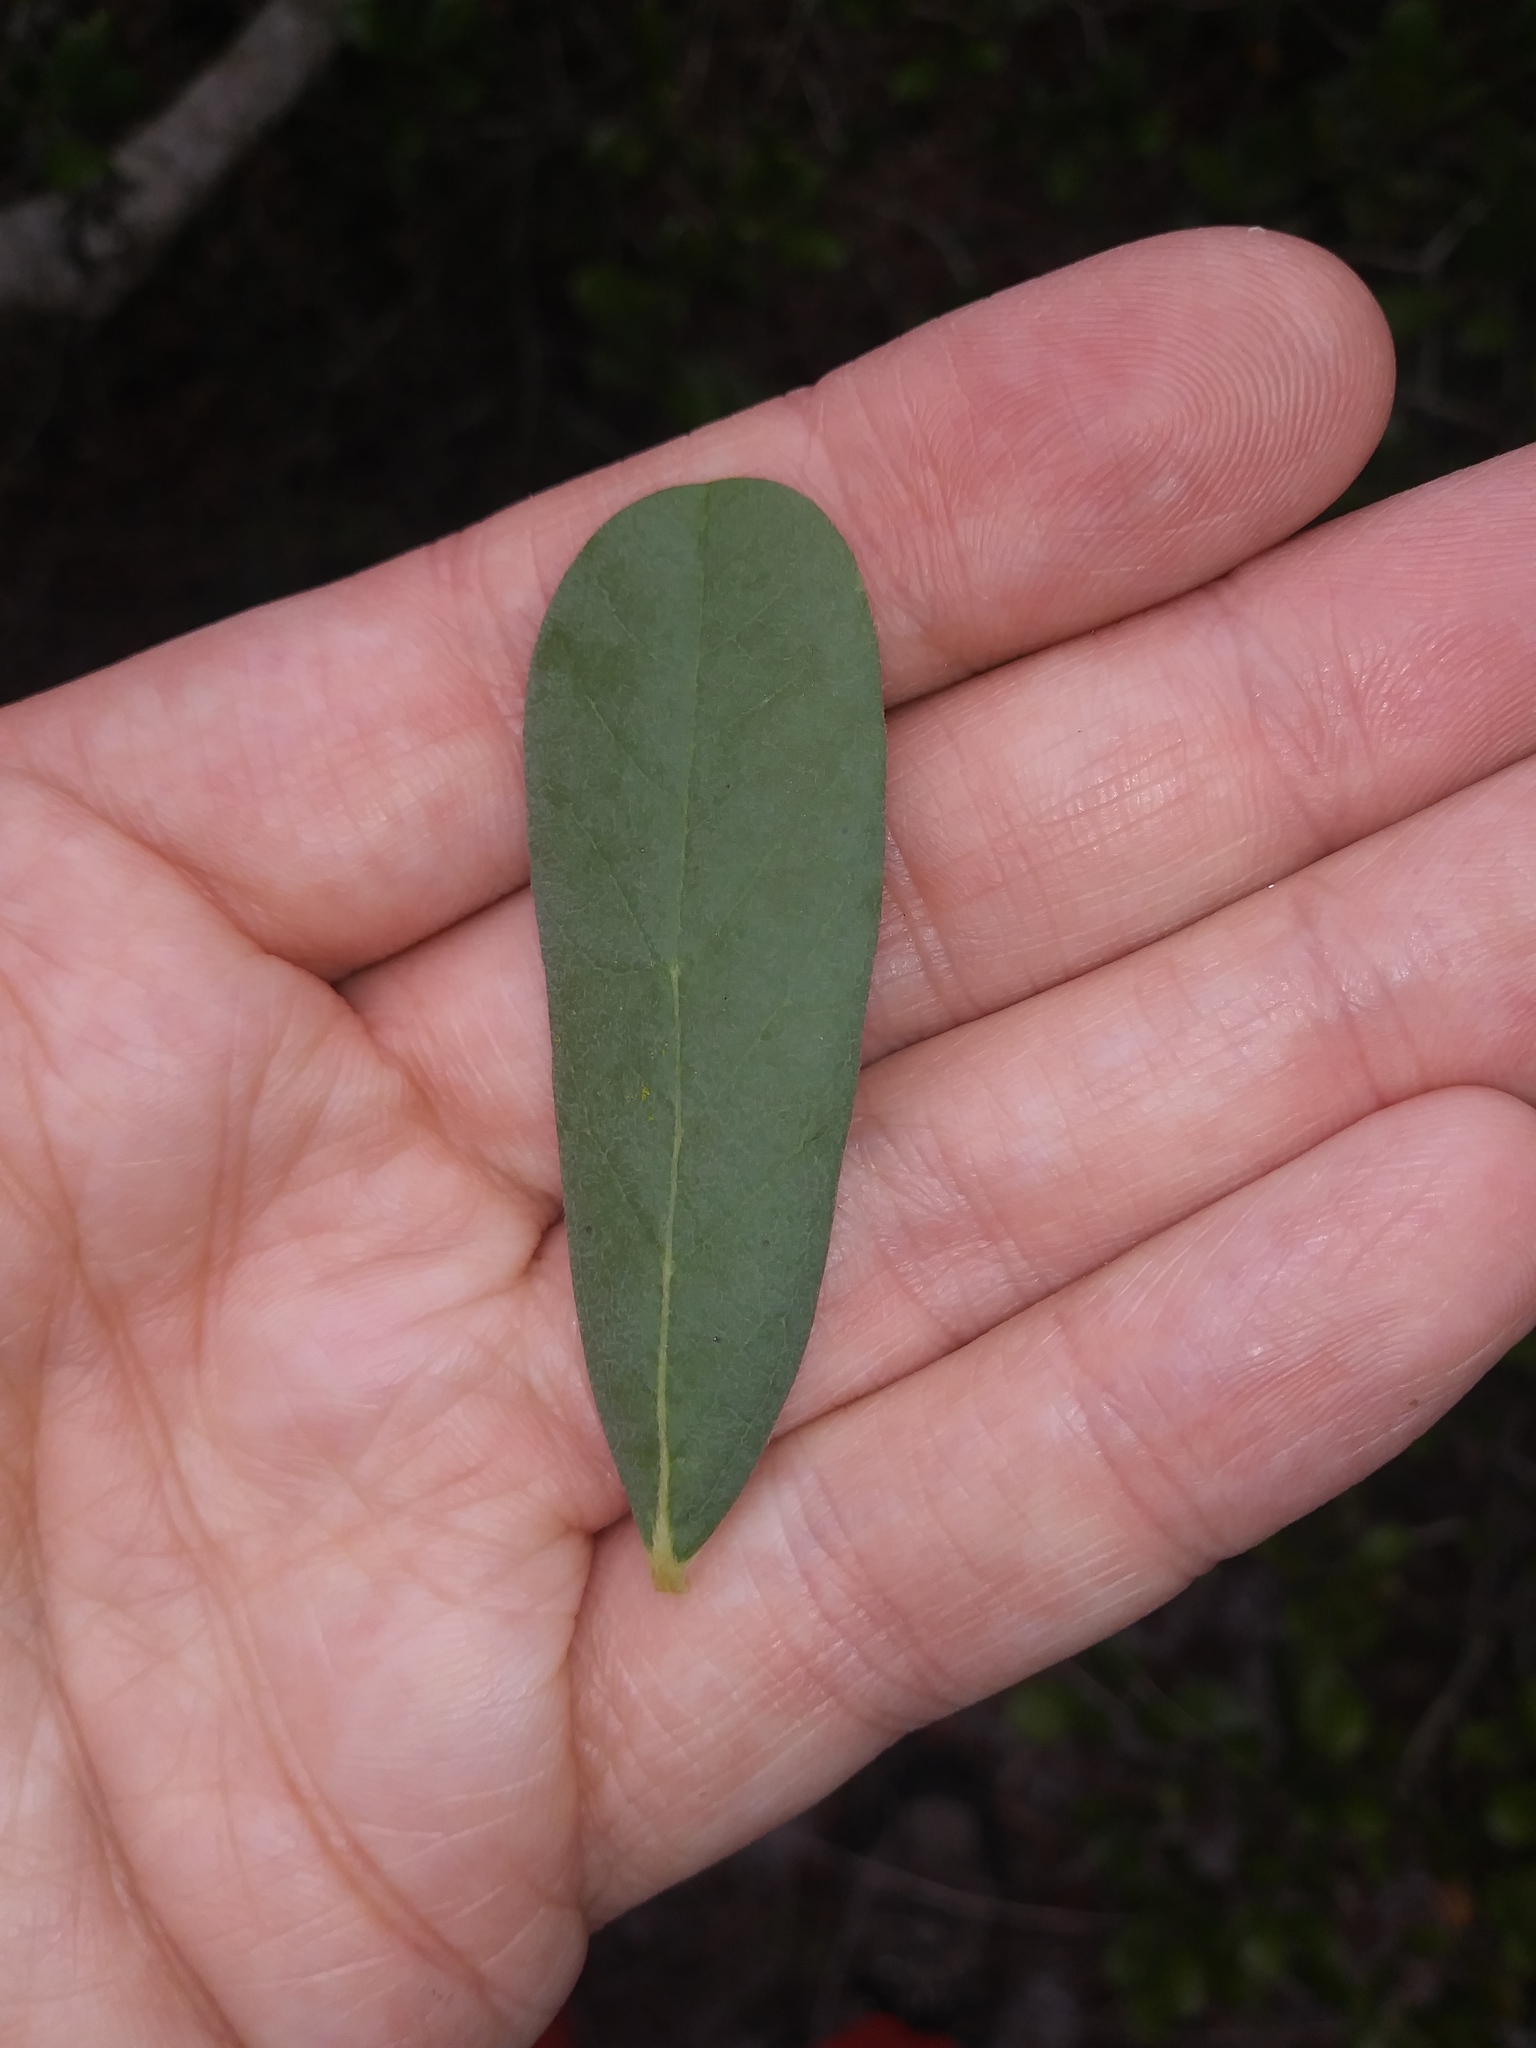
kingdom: Plantae
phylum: Tracheophyta
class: Magnoliopsida
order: Magnoliales
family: Annonaceae
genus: Asimina
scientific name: Asimina reticulata
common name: Flag pawpaw
